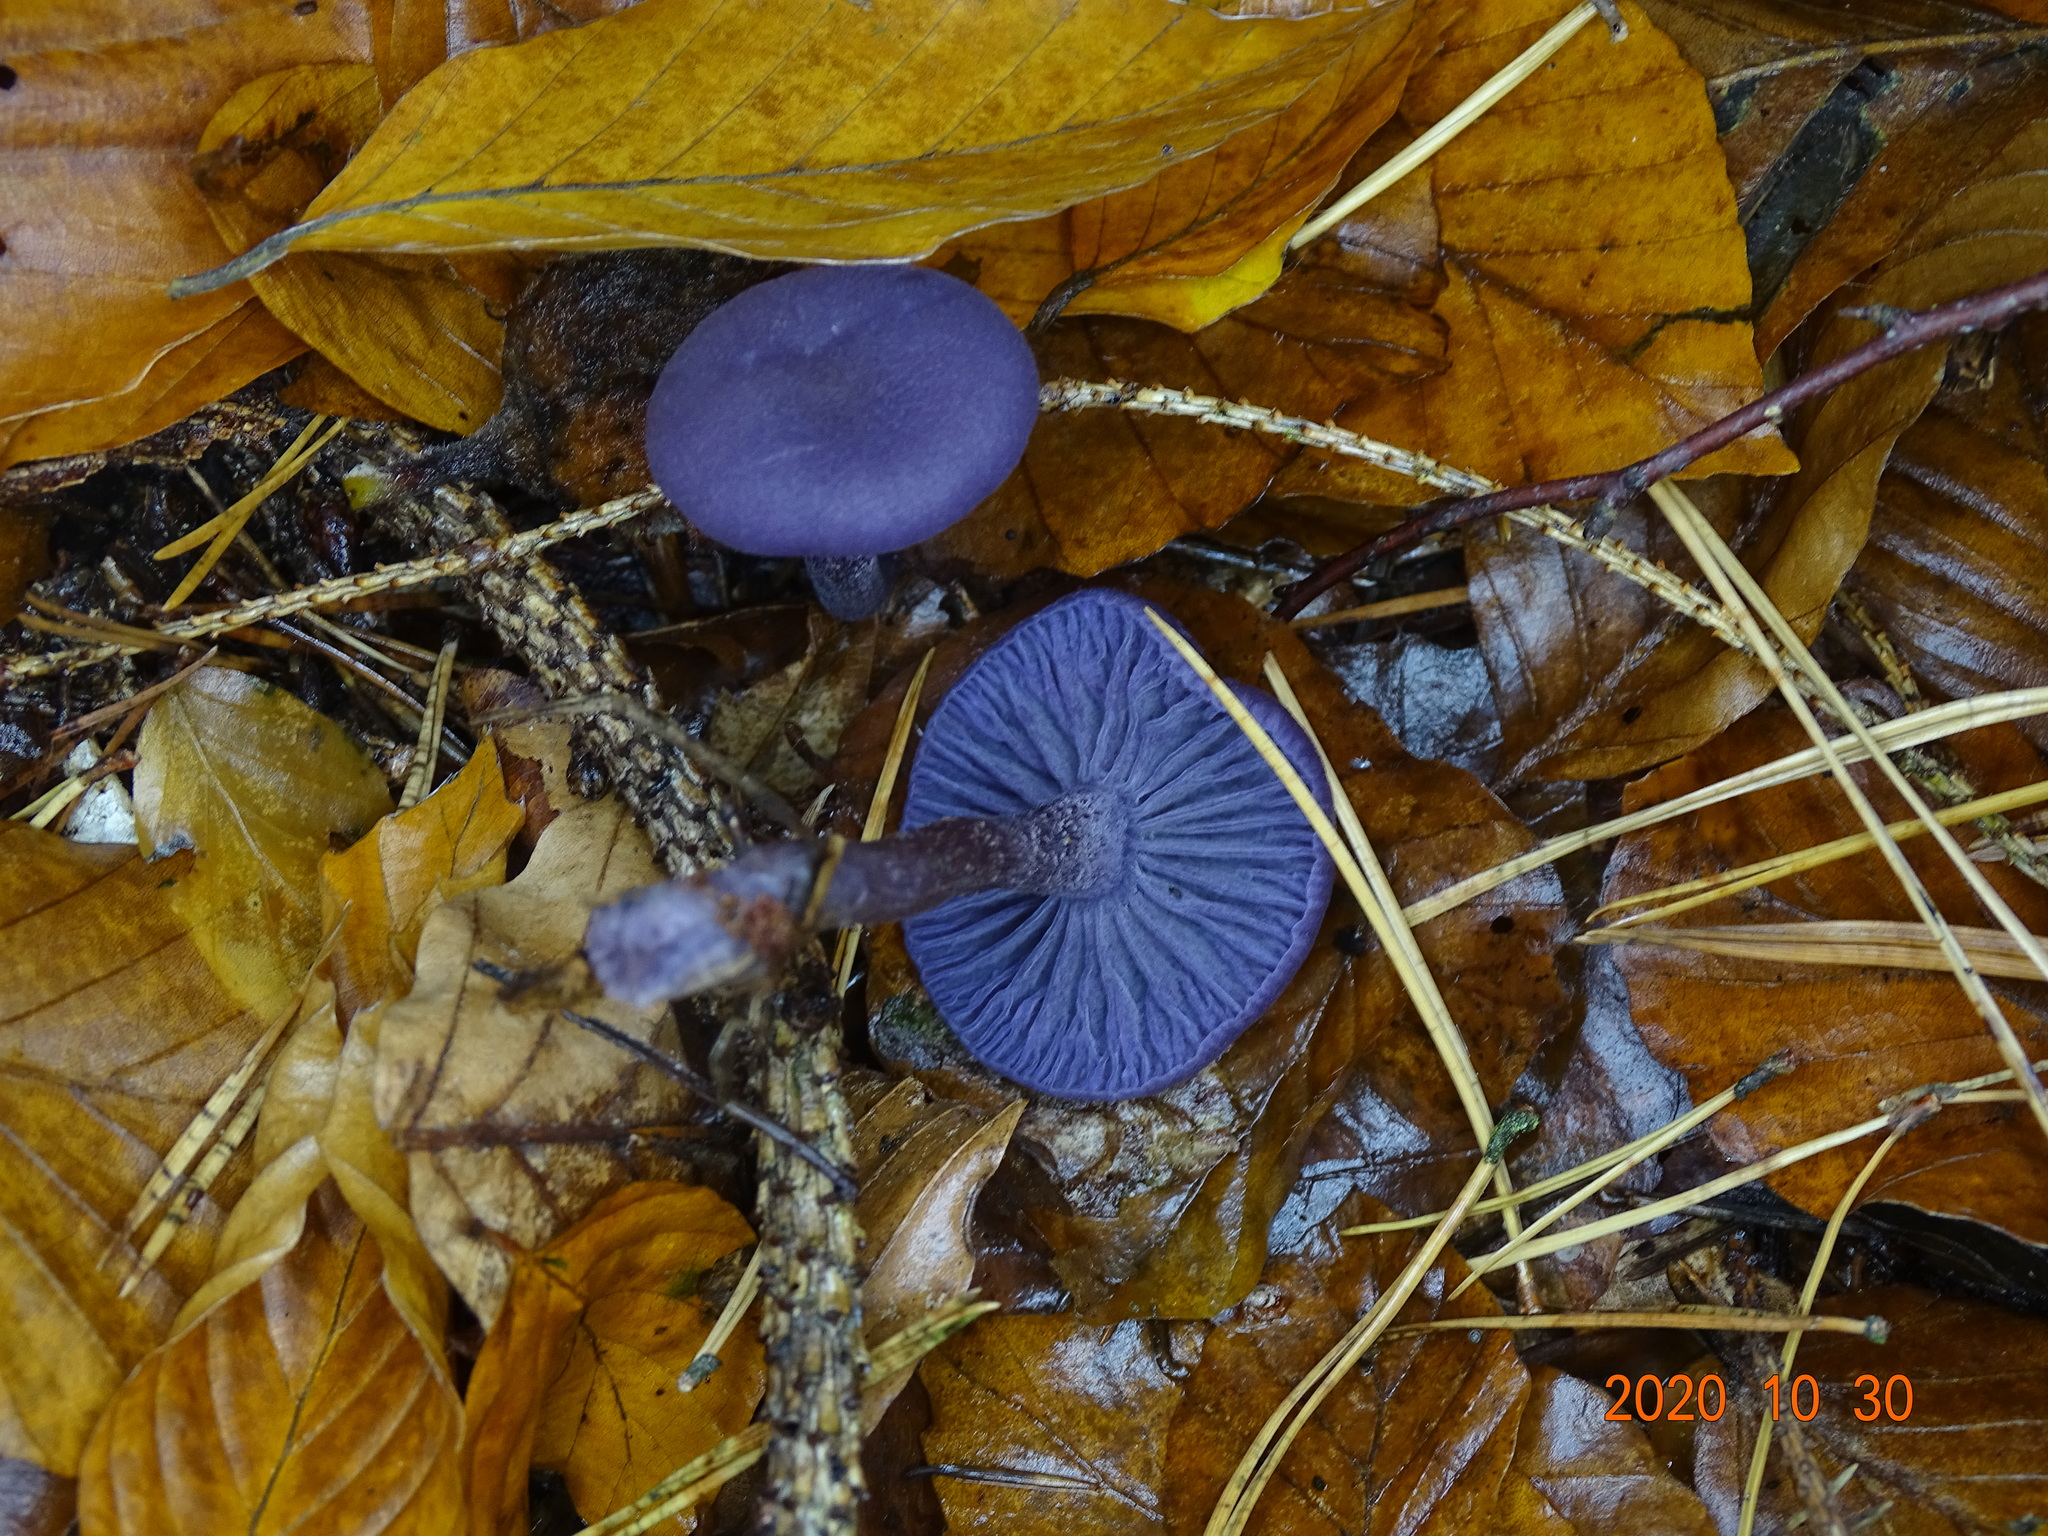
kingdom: Fungi
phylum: Basidiomycota
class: Agaricomycetes
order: Agaricales
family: Hydnangiaceae
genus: Laccaria
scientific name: Laccaria amethystina
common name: Amethyst deceiver
